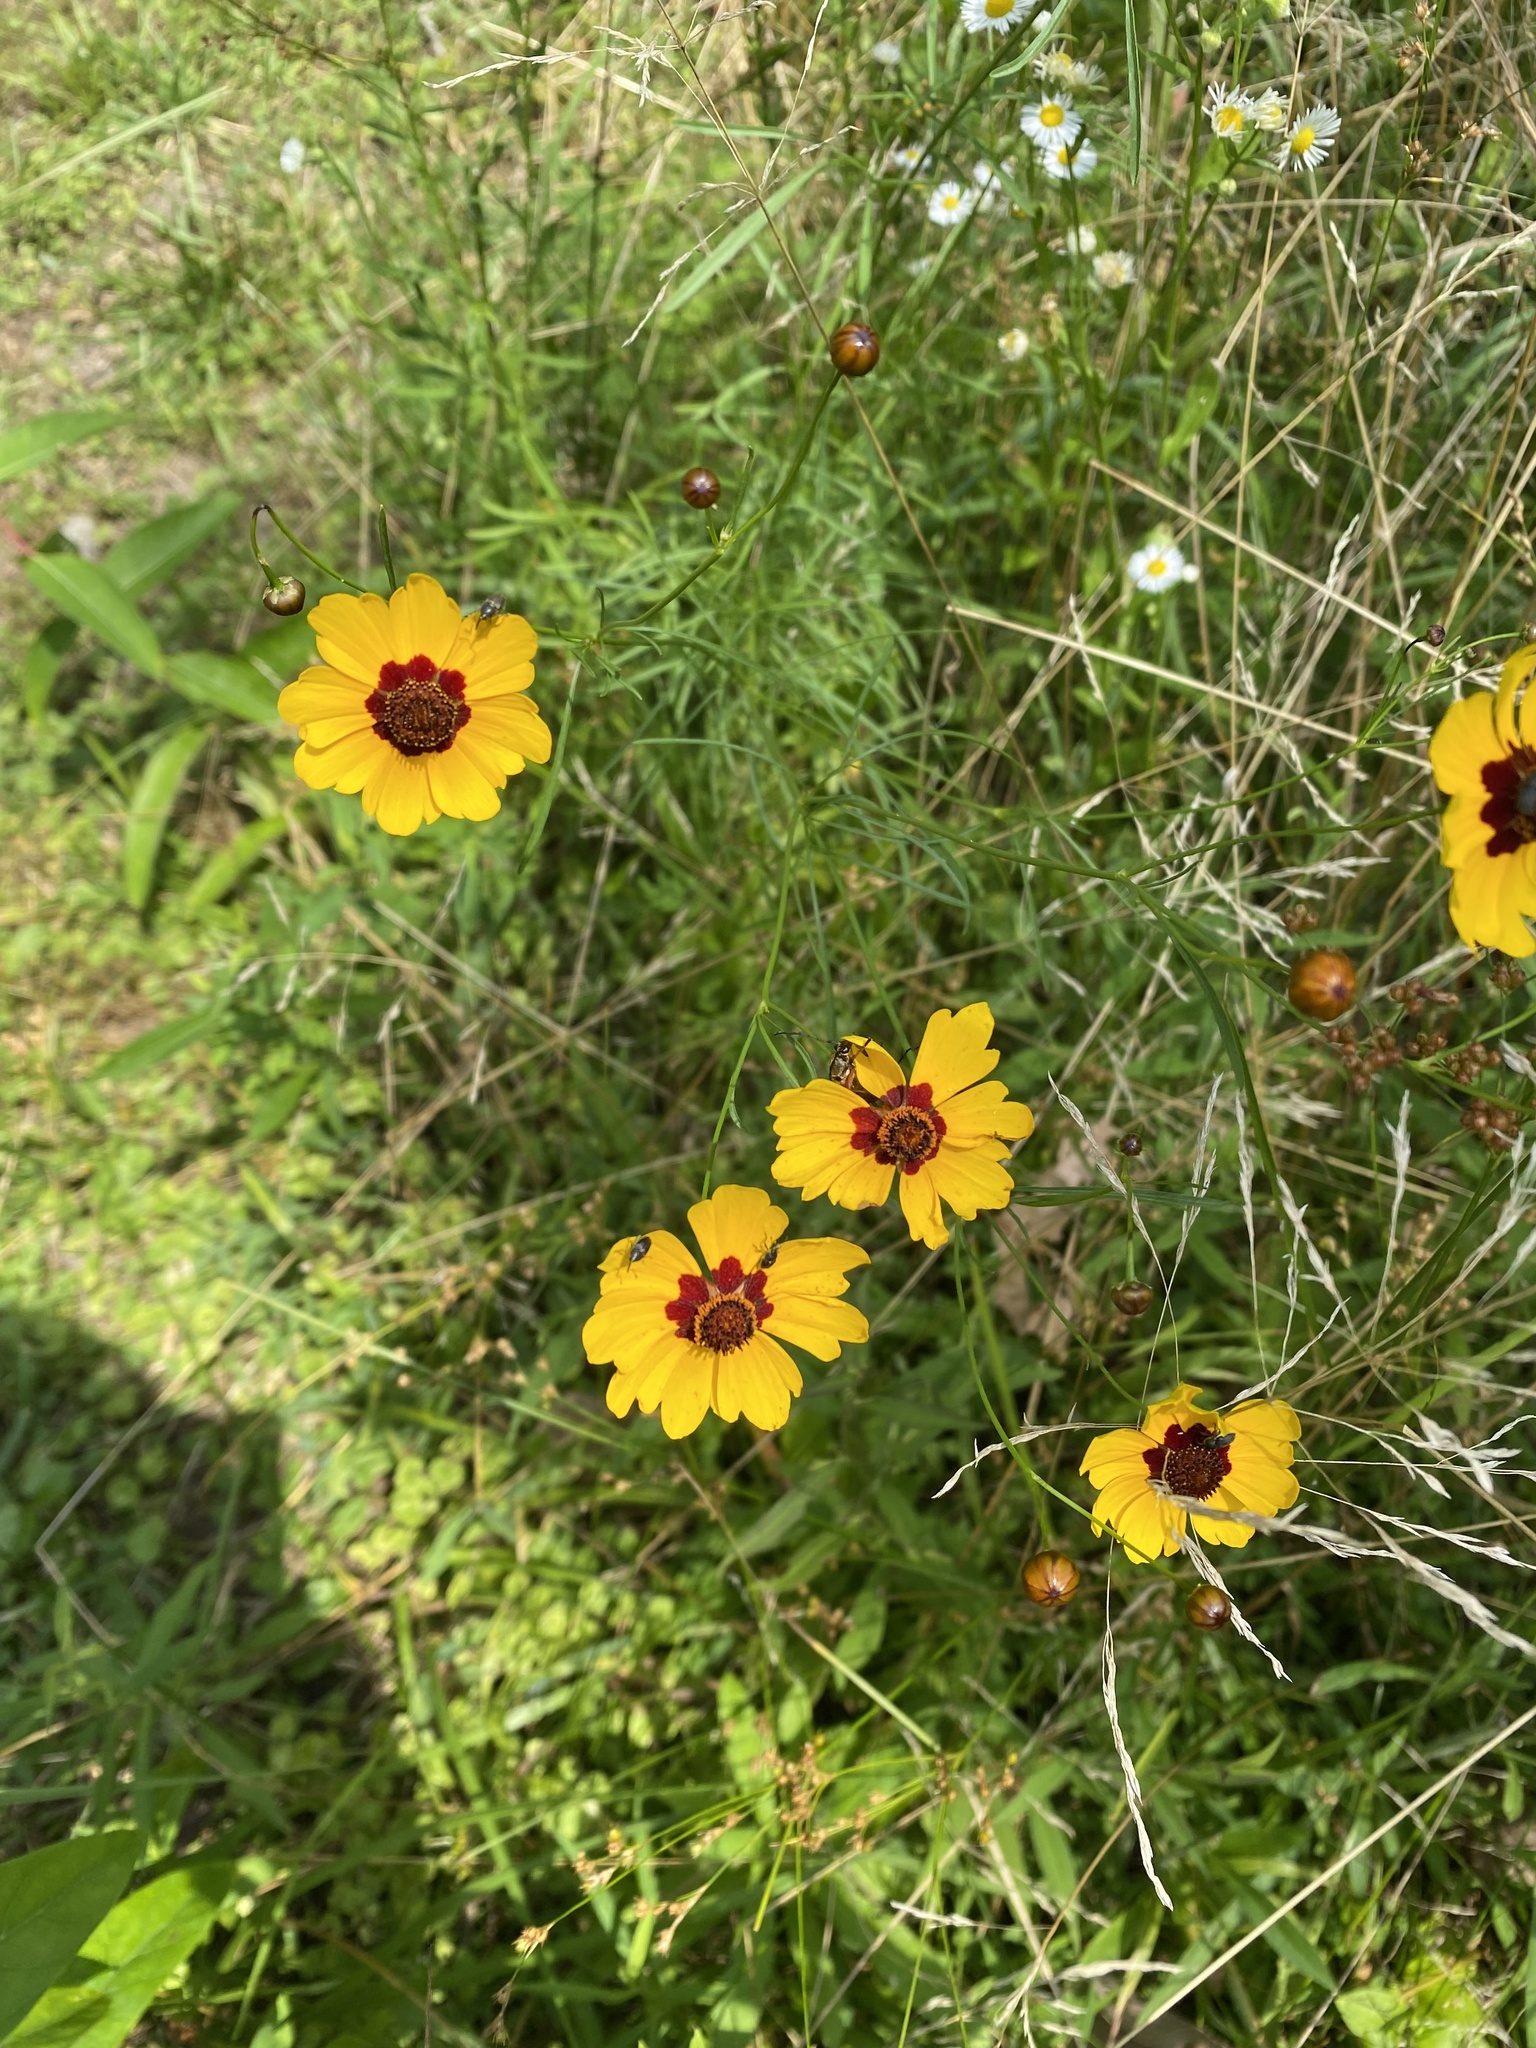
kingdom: Plantae
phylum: Tracheophyta
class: Magnoliopsida
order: Asterales
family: Asteraceae
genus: Coreopsis
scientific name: Coreopsis tinctoria
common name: Garden tickseed
